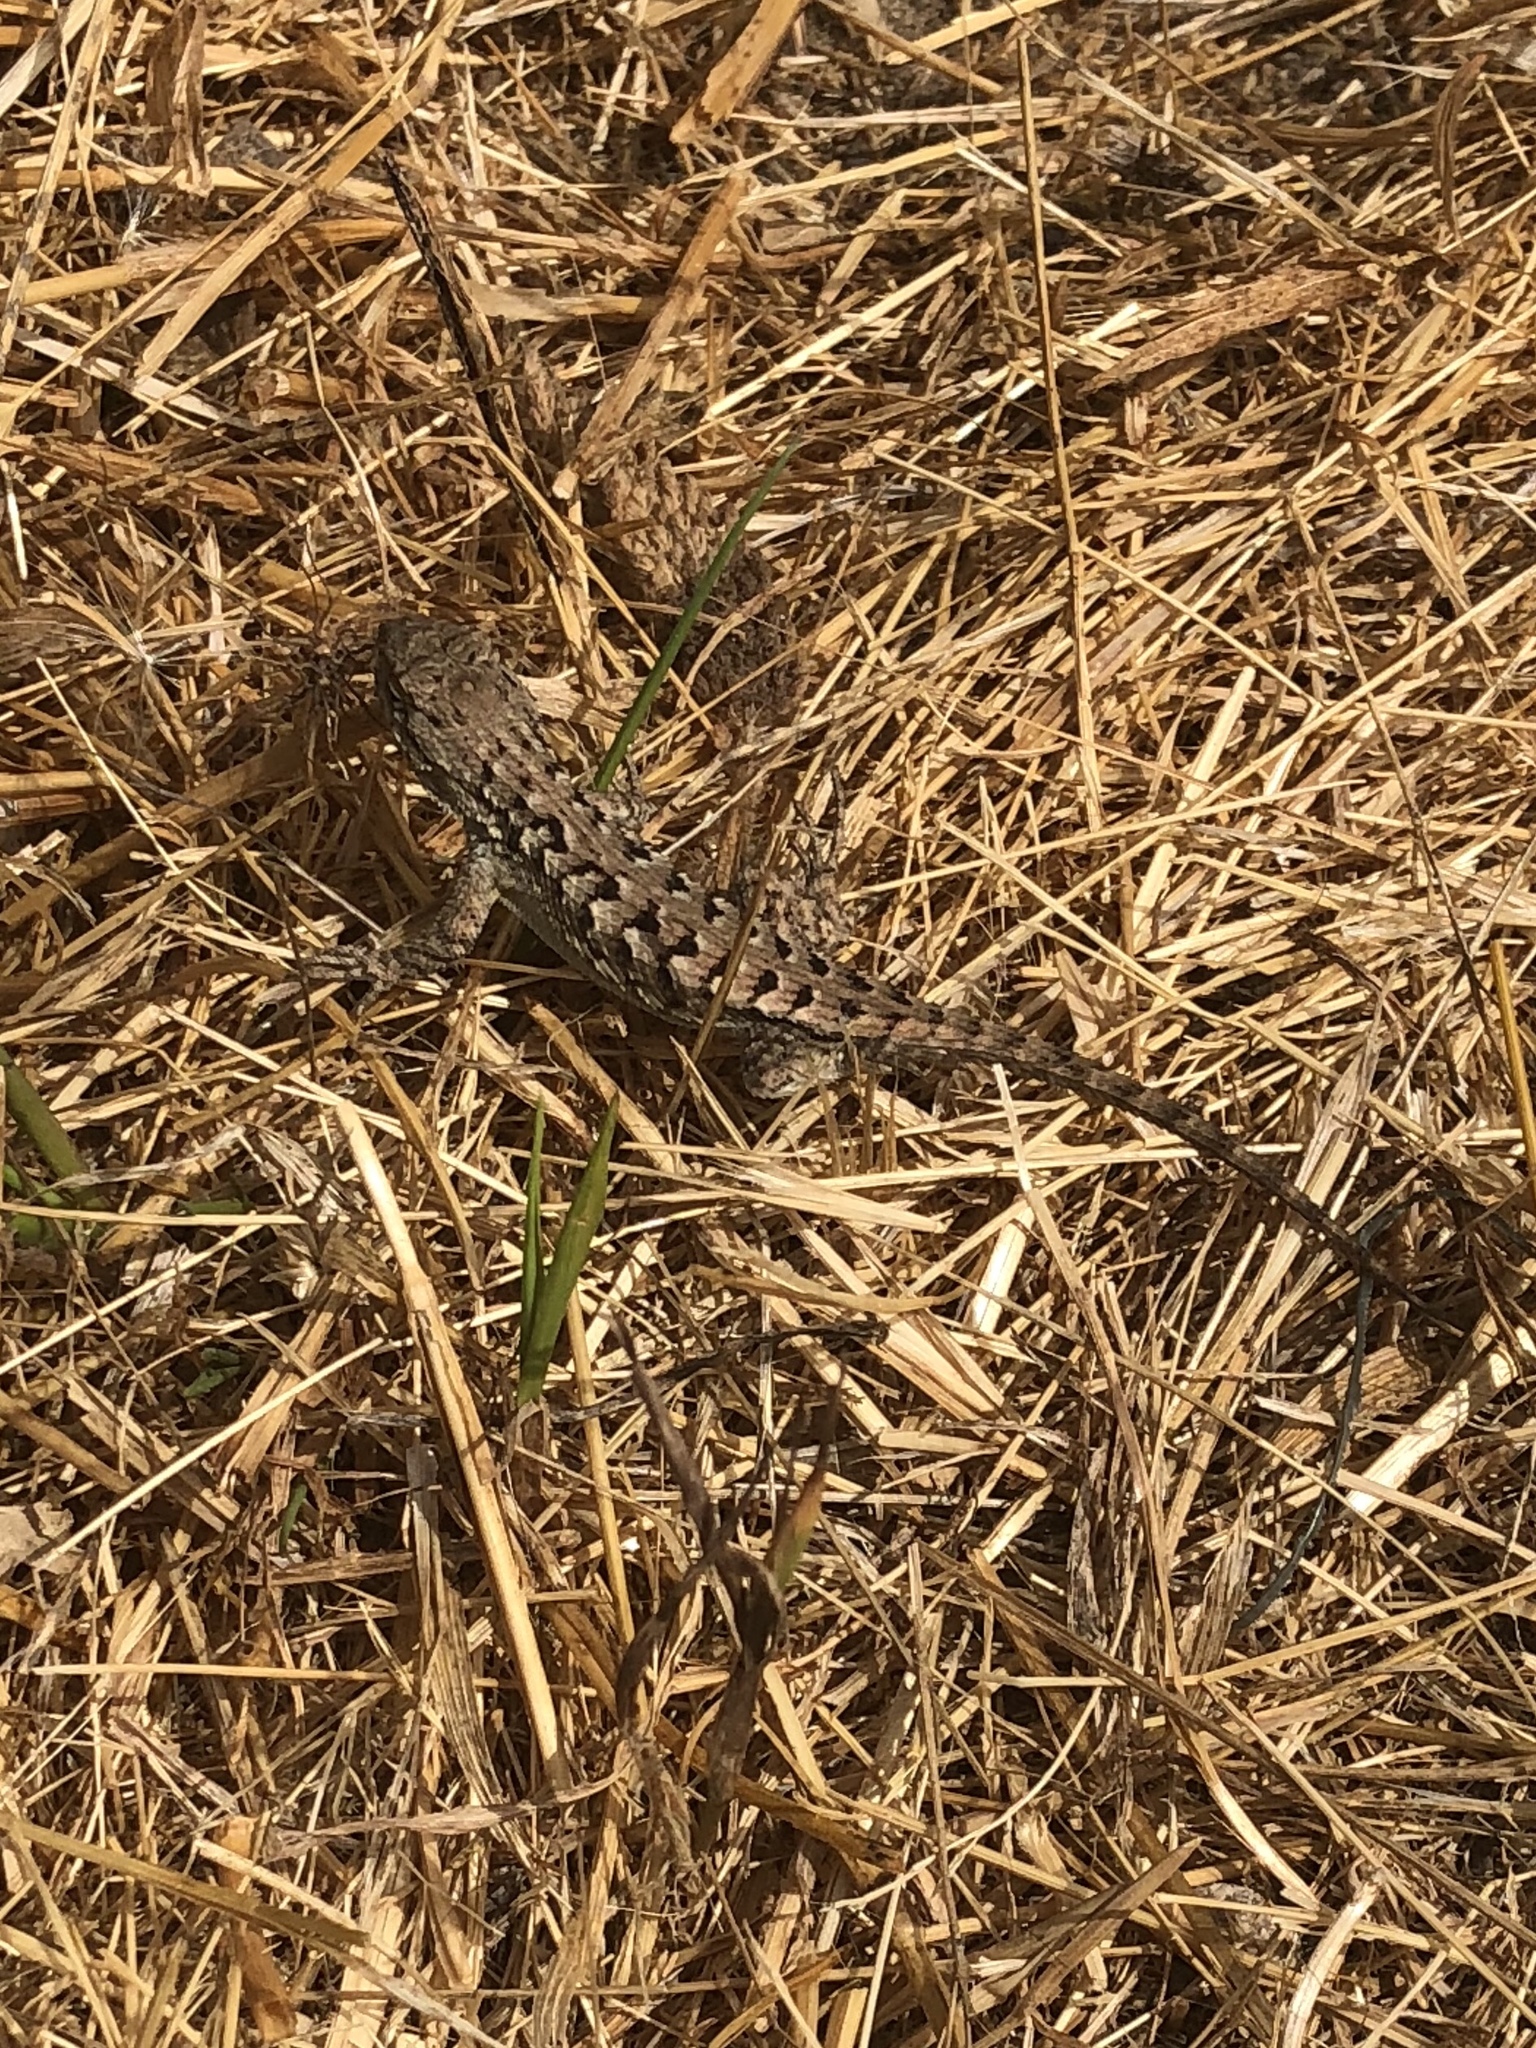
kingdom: Animalia
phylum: Chordata
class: Squamata
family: Phrynosomatidae
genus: Sceloporus
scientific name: Sceloporus occidentalis
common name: Western fence lizard
